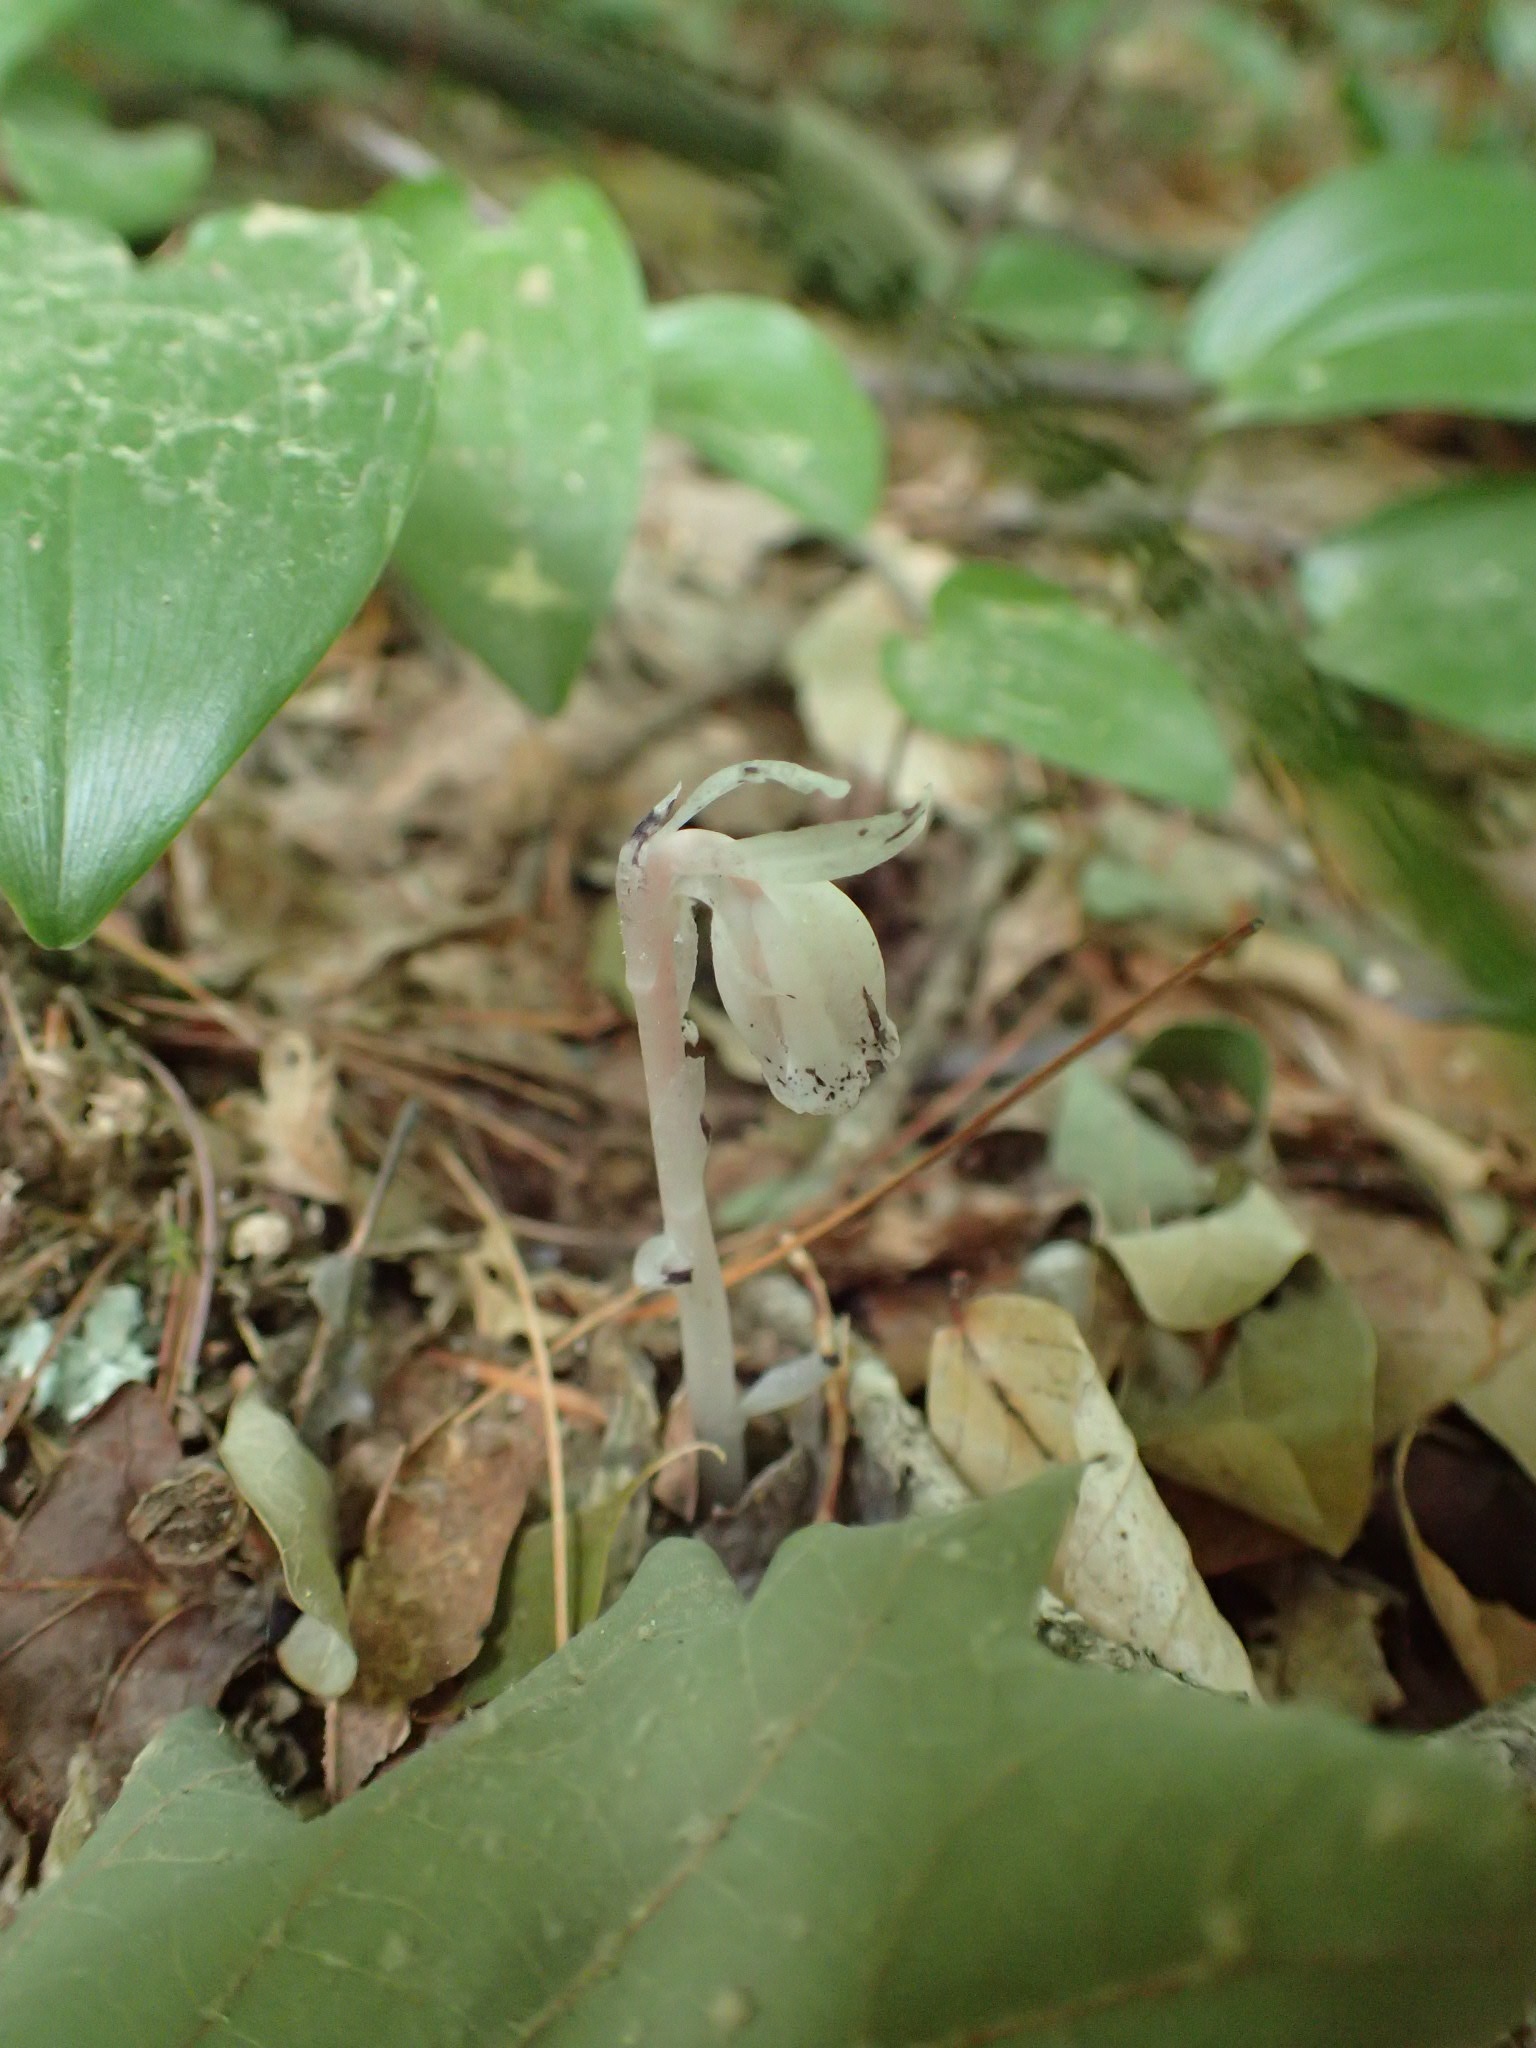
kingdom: Plantae
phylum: Tracheophyta
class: Magnoliopsida
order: Ericales
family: Ericaceae
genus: Monotropa
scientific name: Monotropa uniflora
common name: Convulsion root
